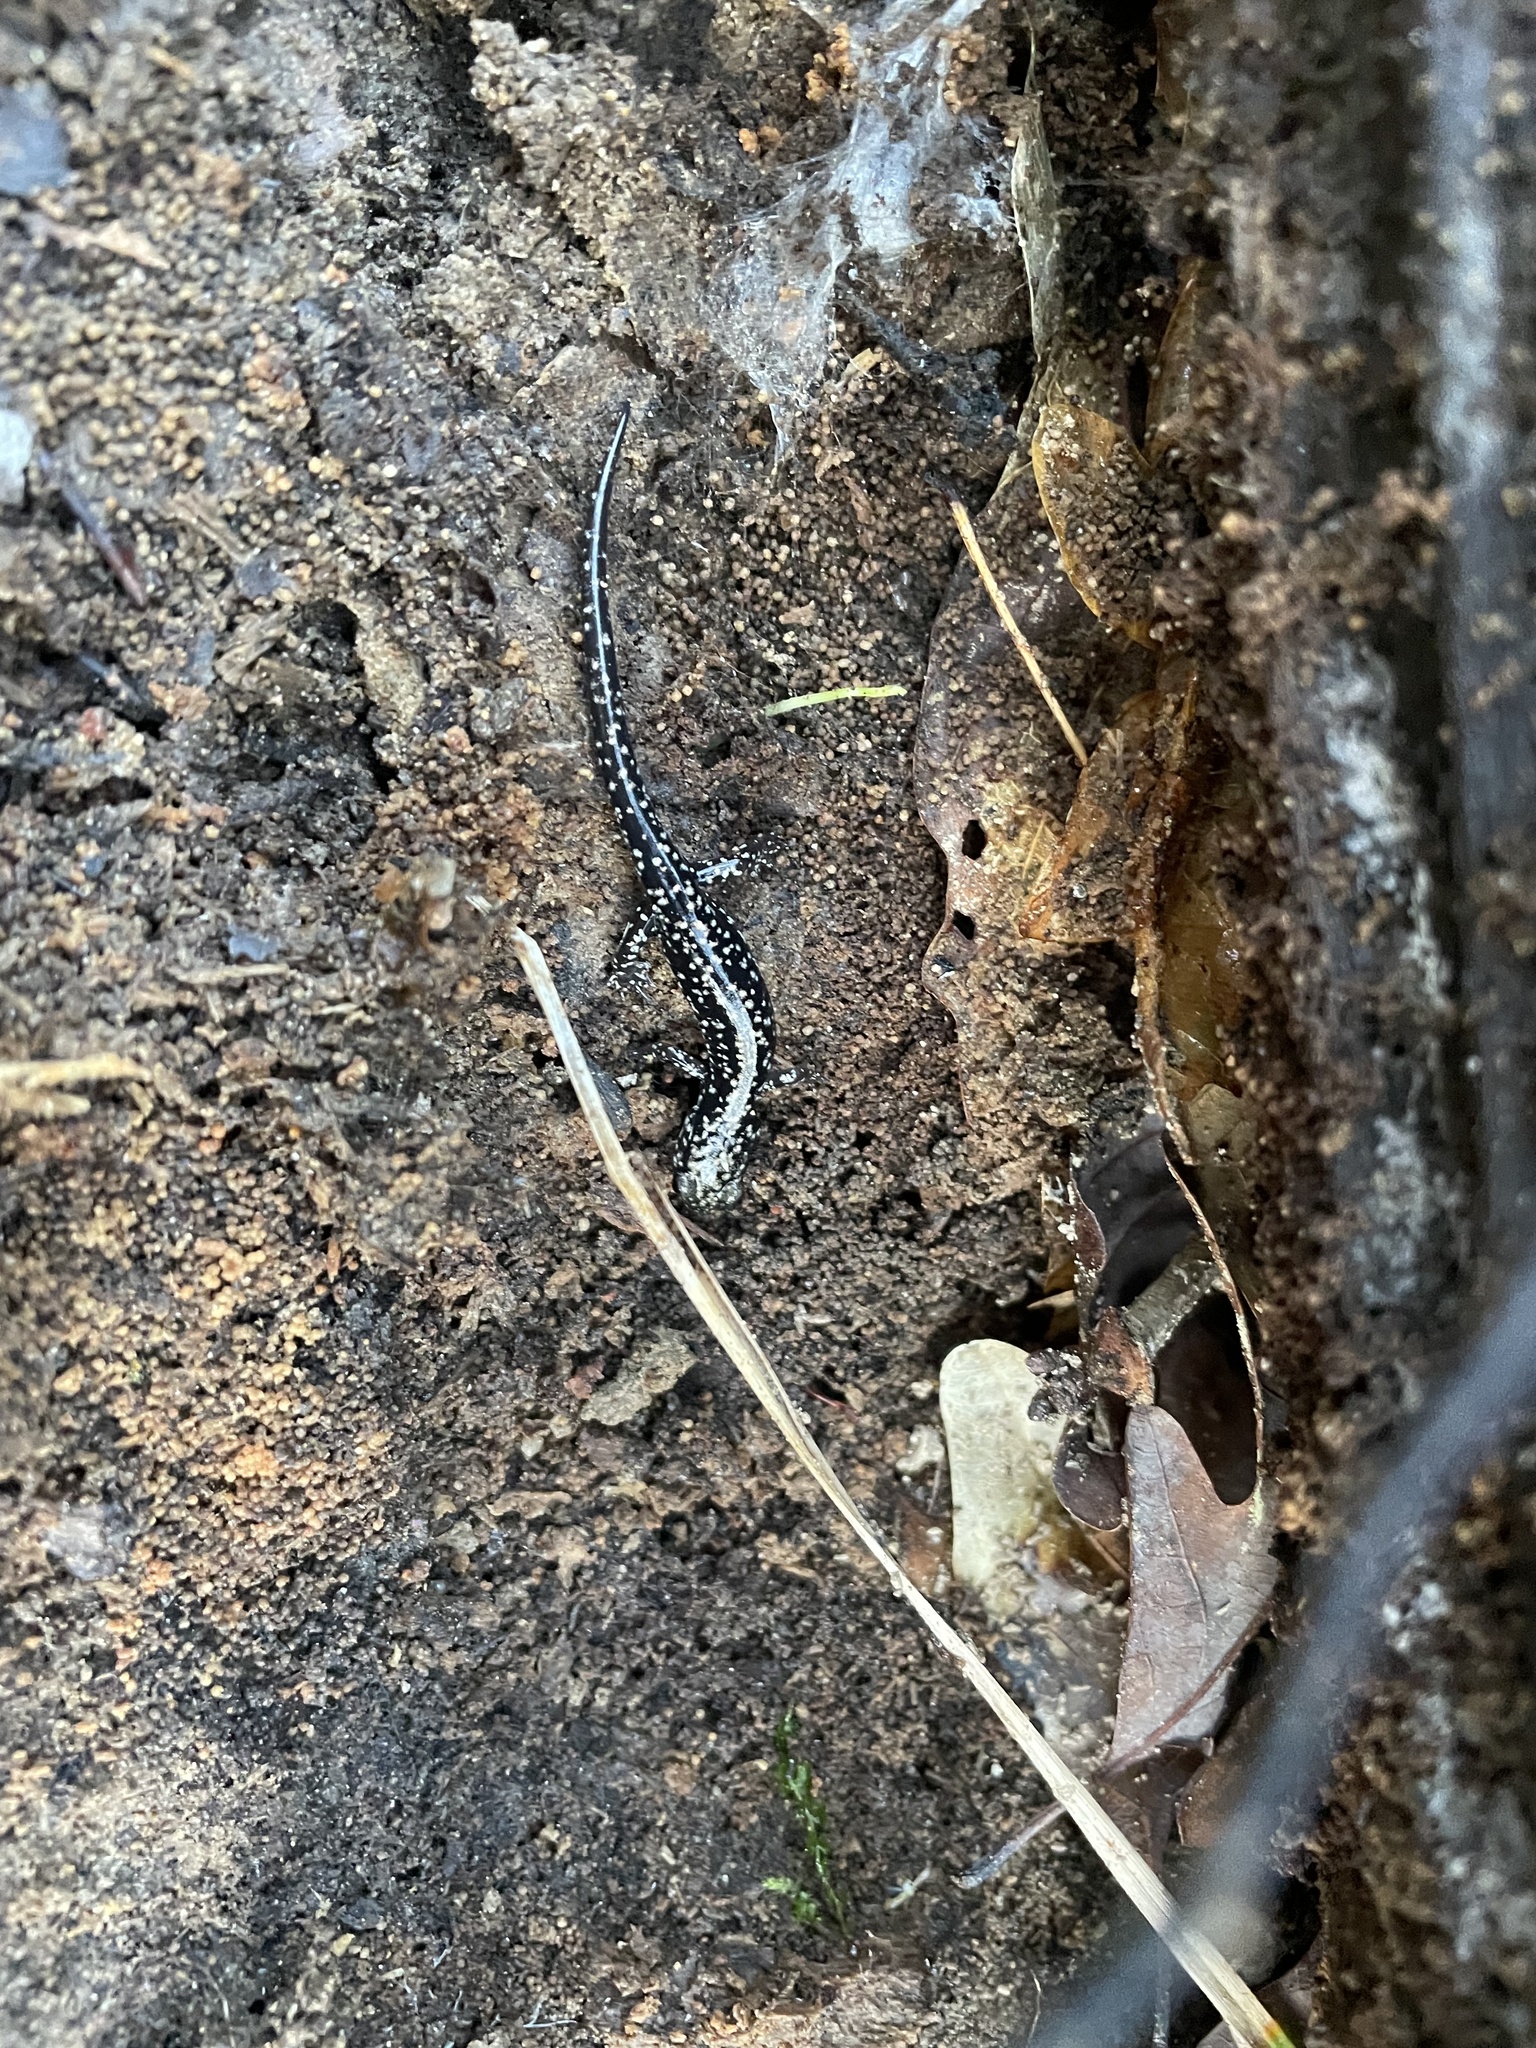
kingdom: Animalia
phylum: Chordata
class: Amphibia
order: Caudata
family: Plethodontidae
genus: Plethodon
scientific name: Plethodon glutinosus
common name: Northern slimy salamander
